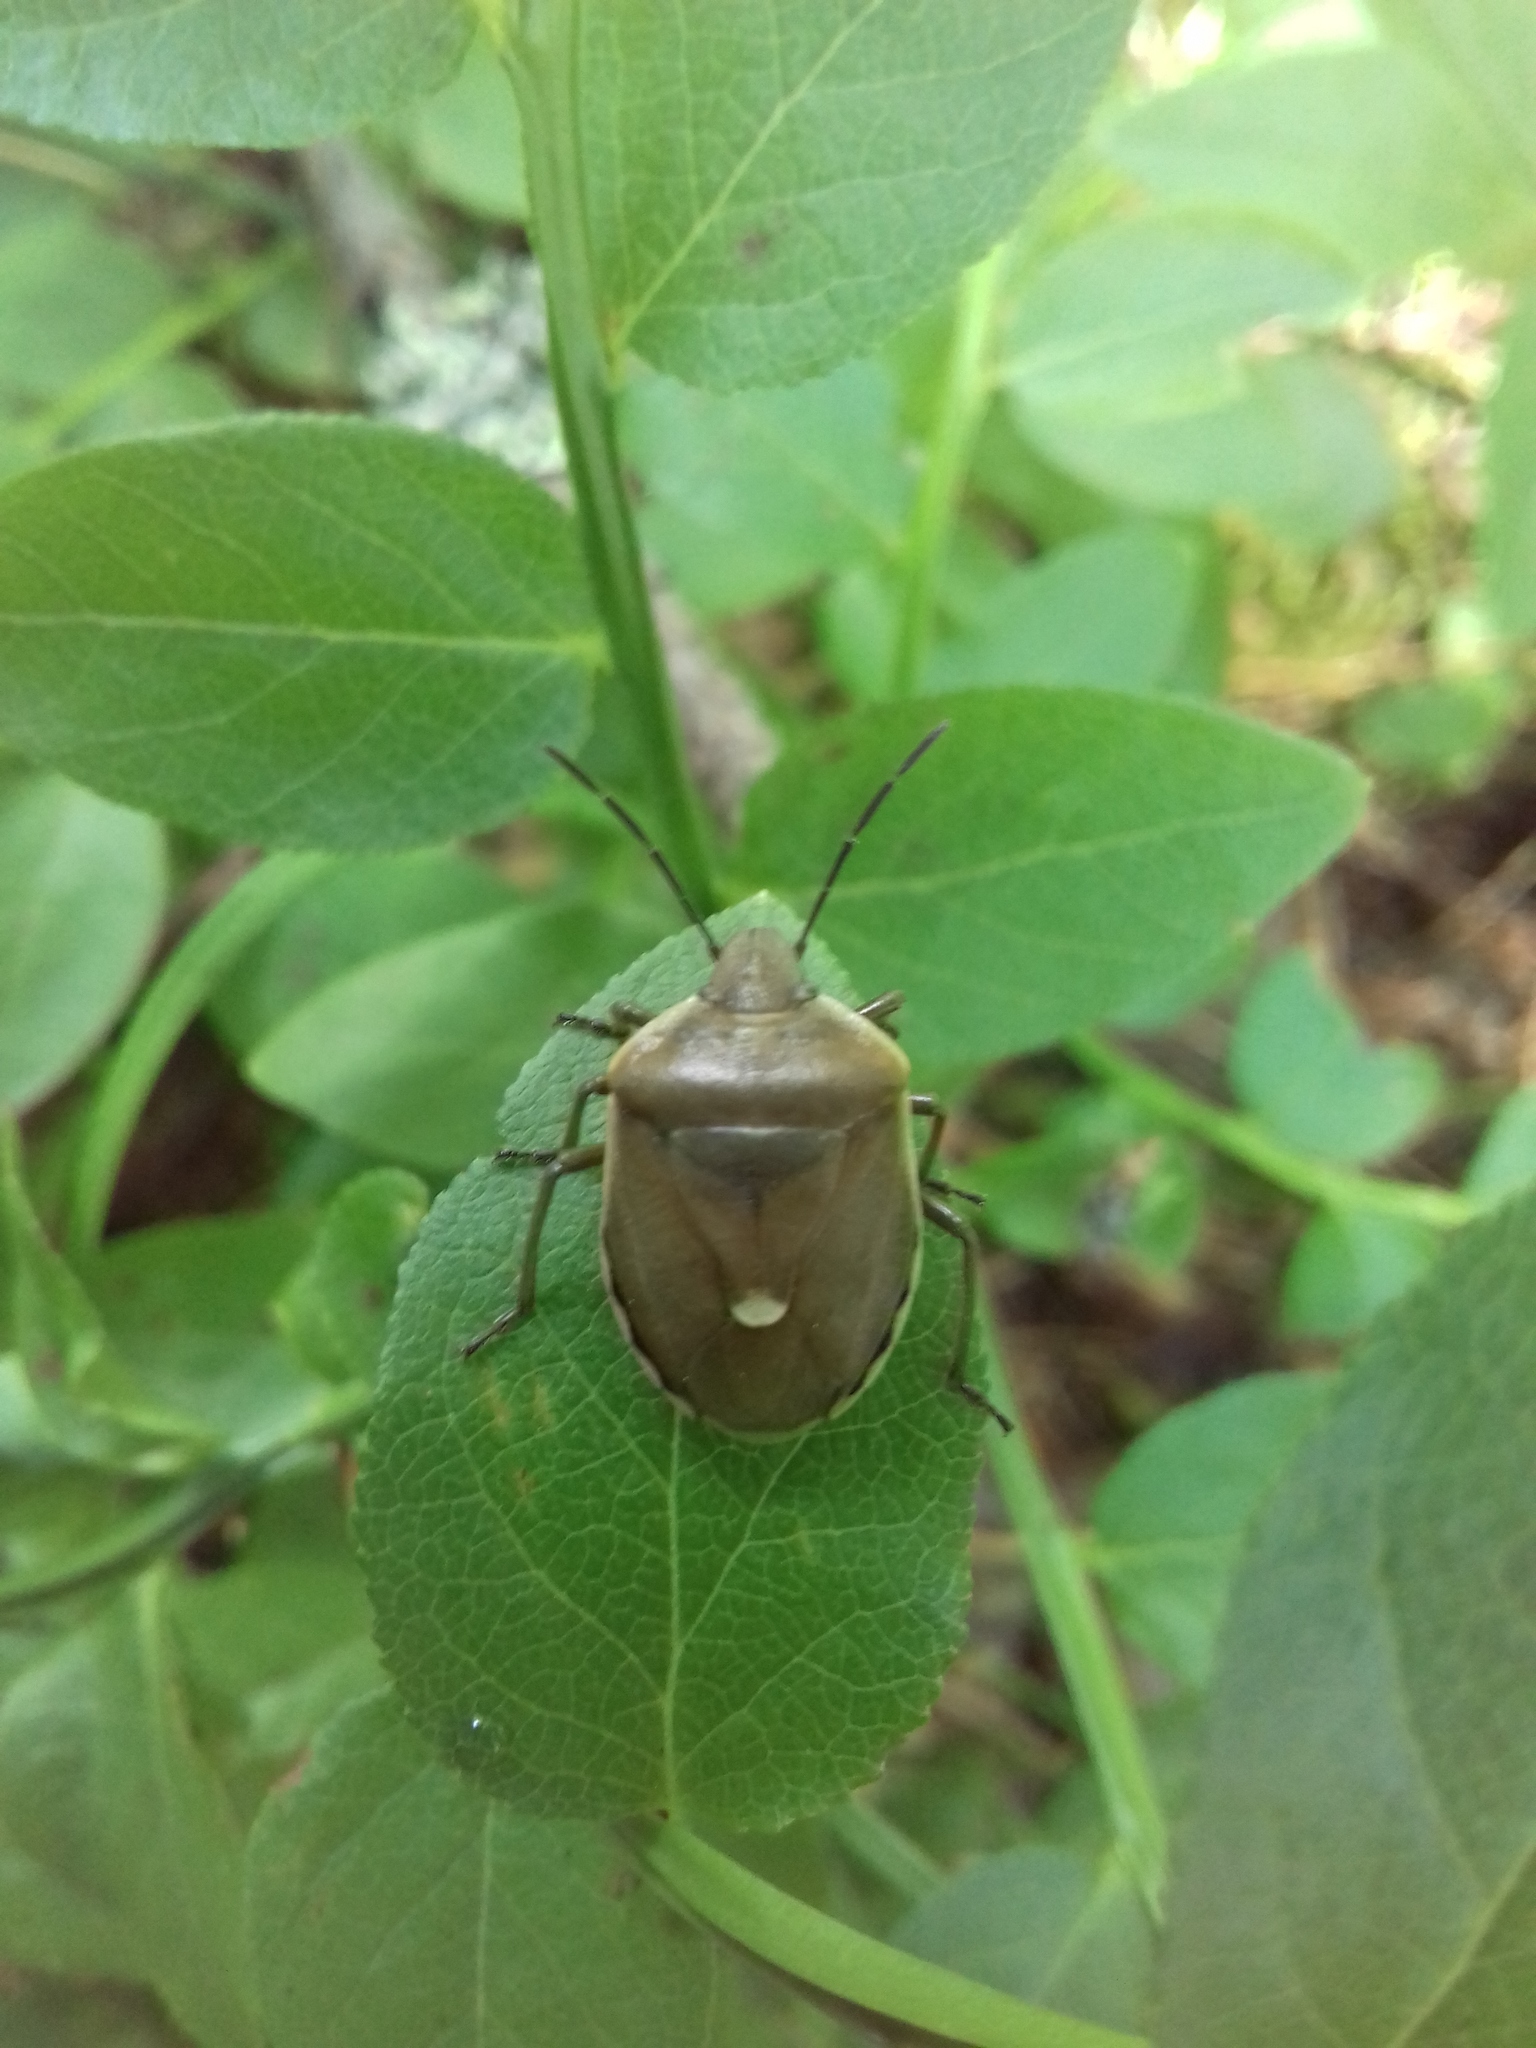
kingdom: Animalia
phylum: Arthropoda
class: Insecta
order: Hemiptera
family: Pentatomidae
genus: Chlorochroa
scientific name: Chlorochroa pinicola
